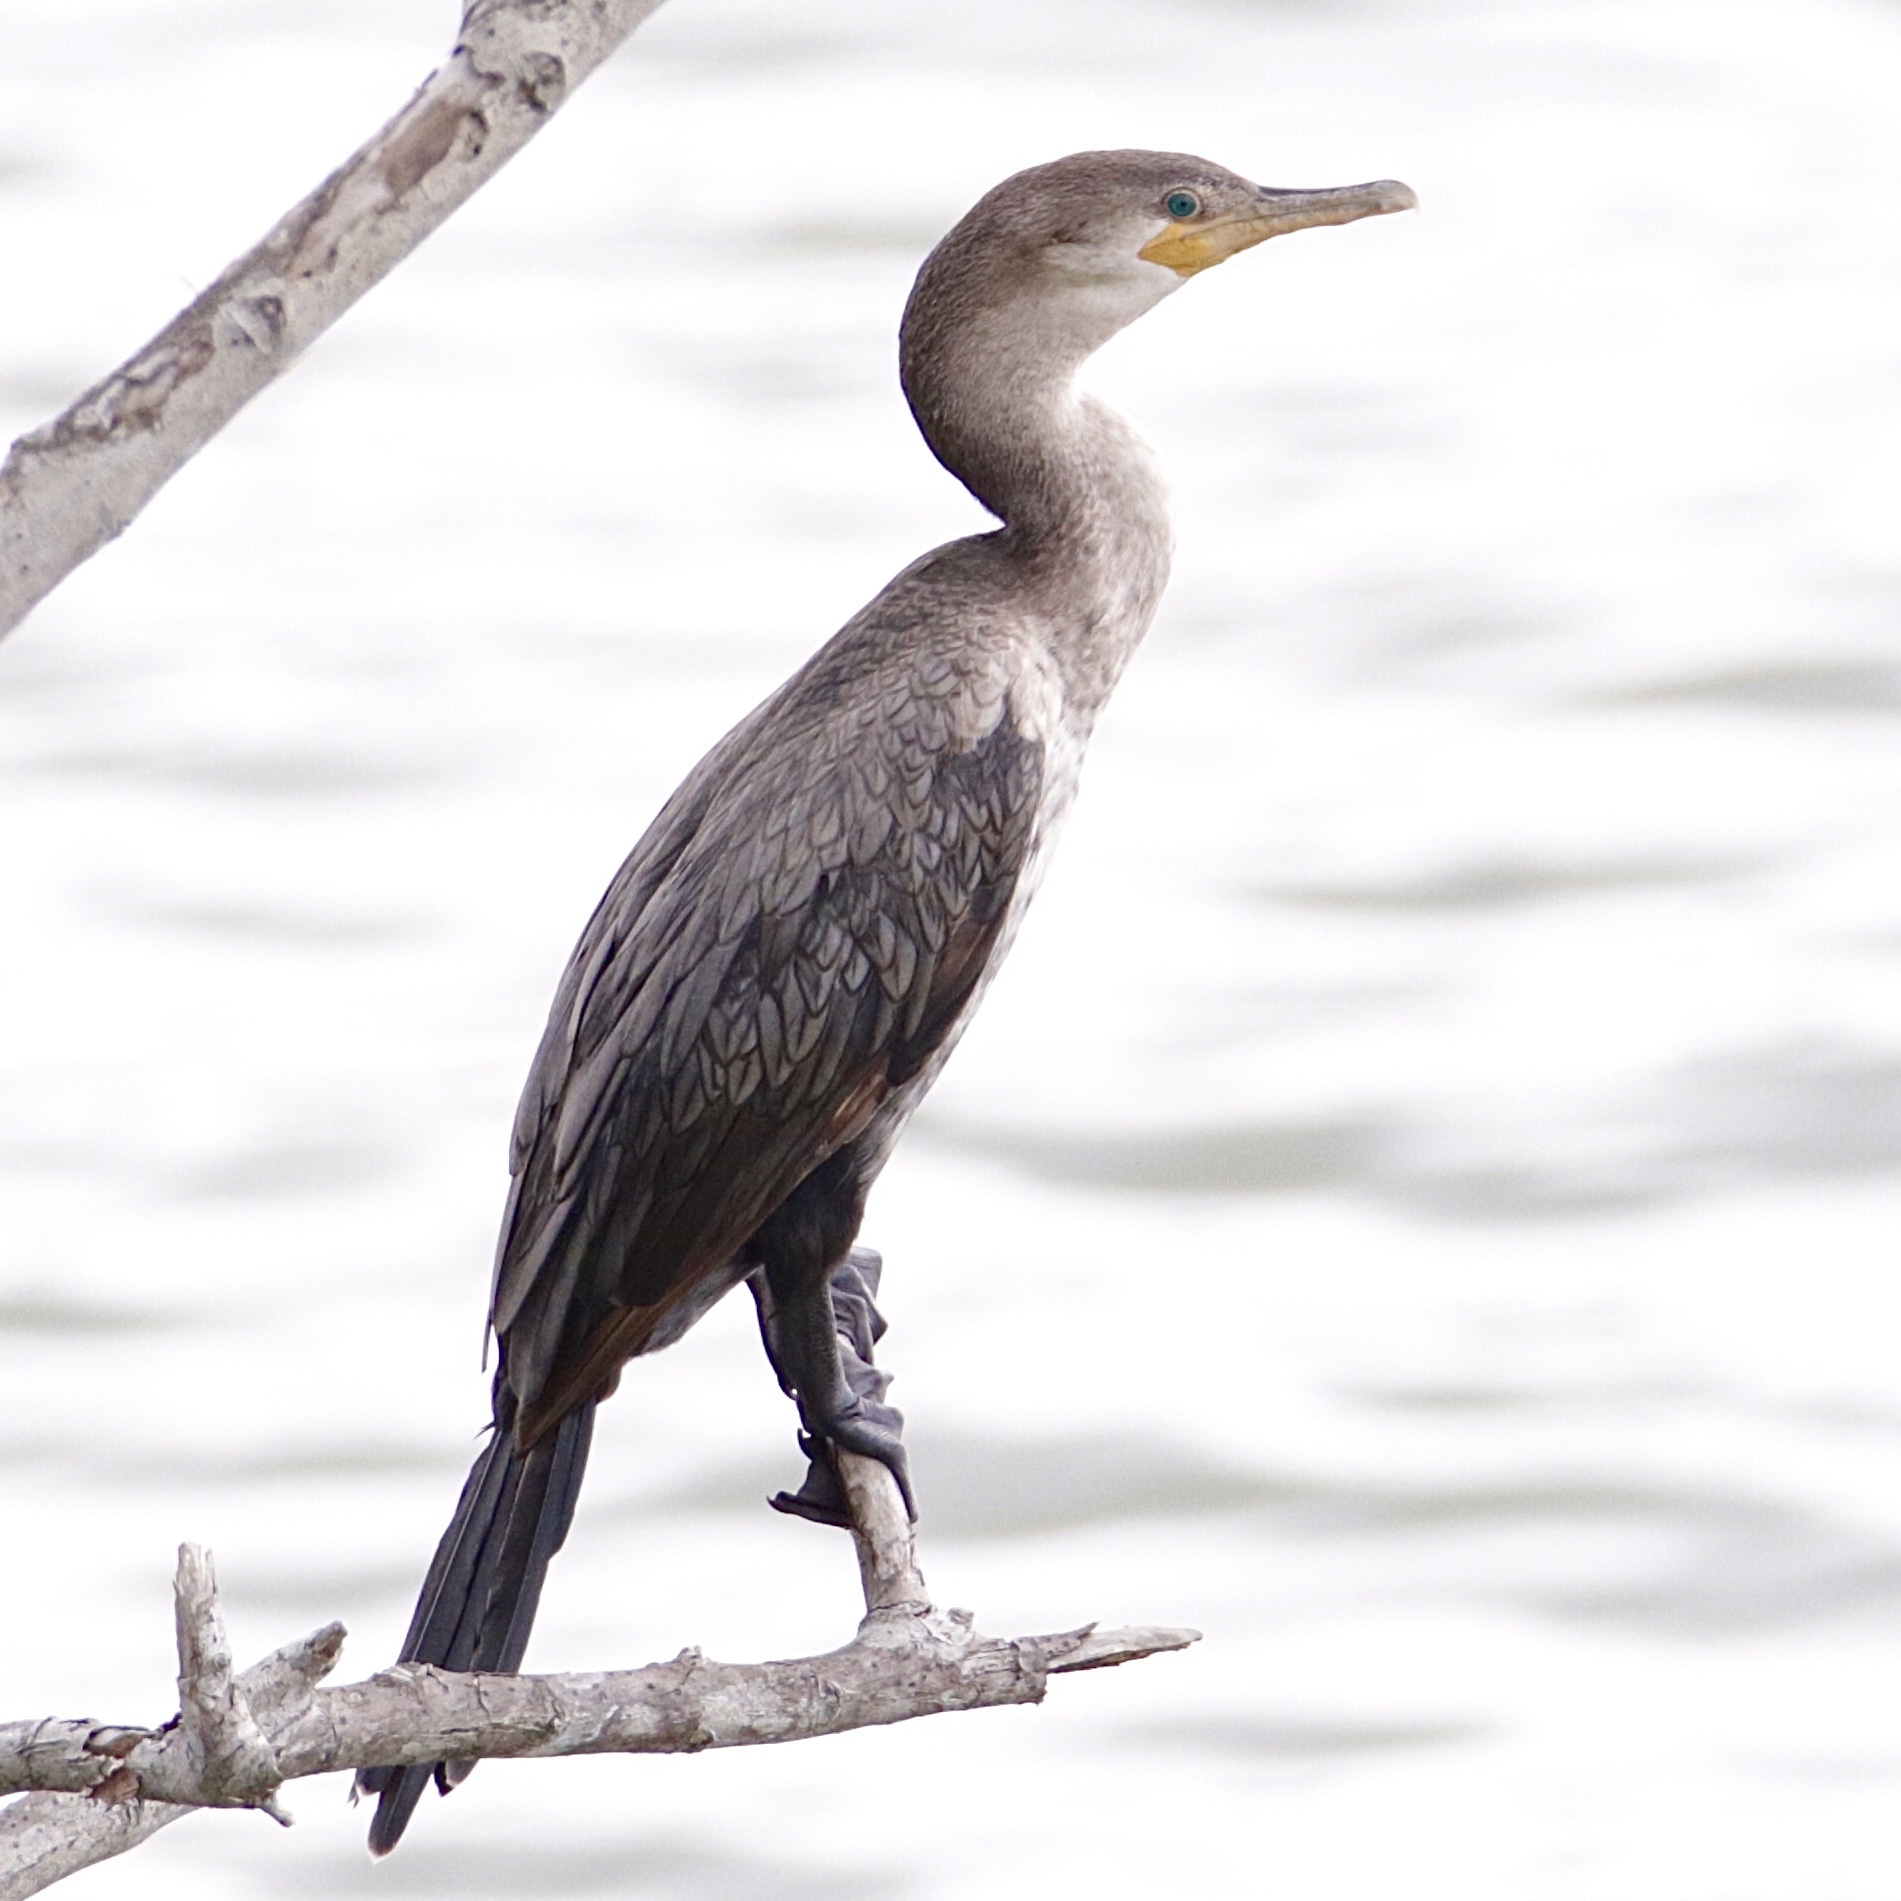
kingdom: Animalia
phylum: Chordata
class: Aves
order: Suliformes
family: Phalacrocoracidae
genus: Phalacrocorax
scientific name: Phalacrocorax brasilianus
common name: Neotropic cormorant
